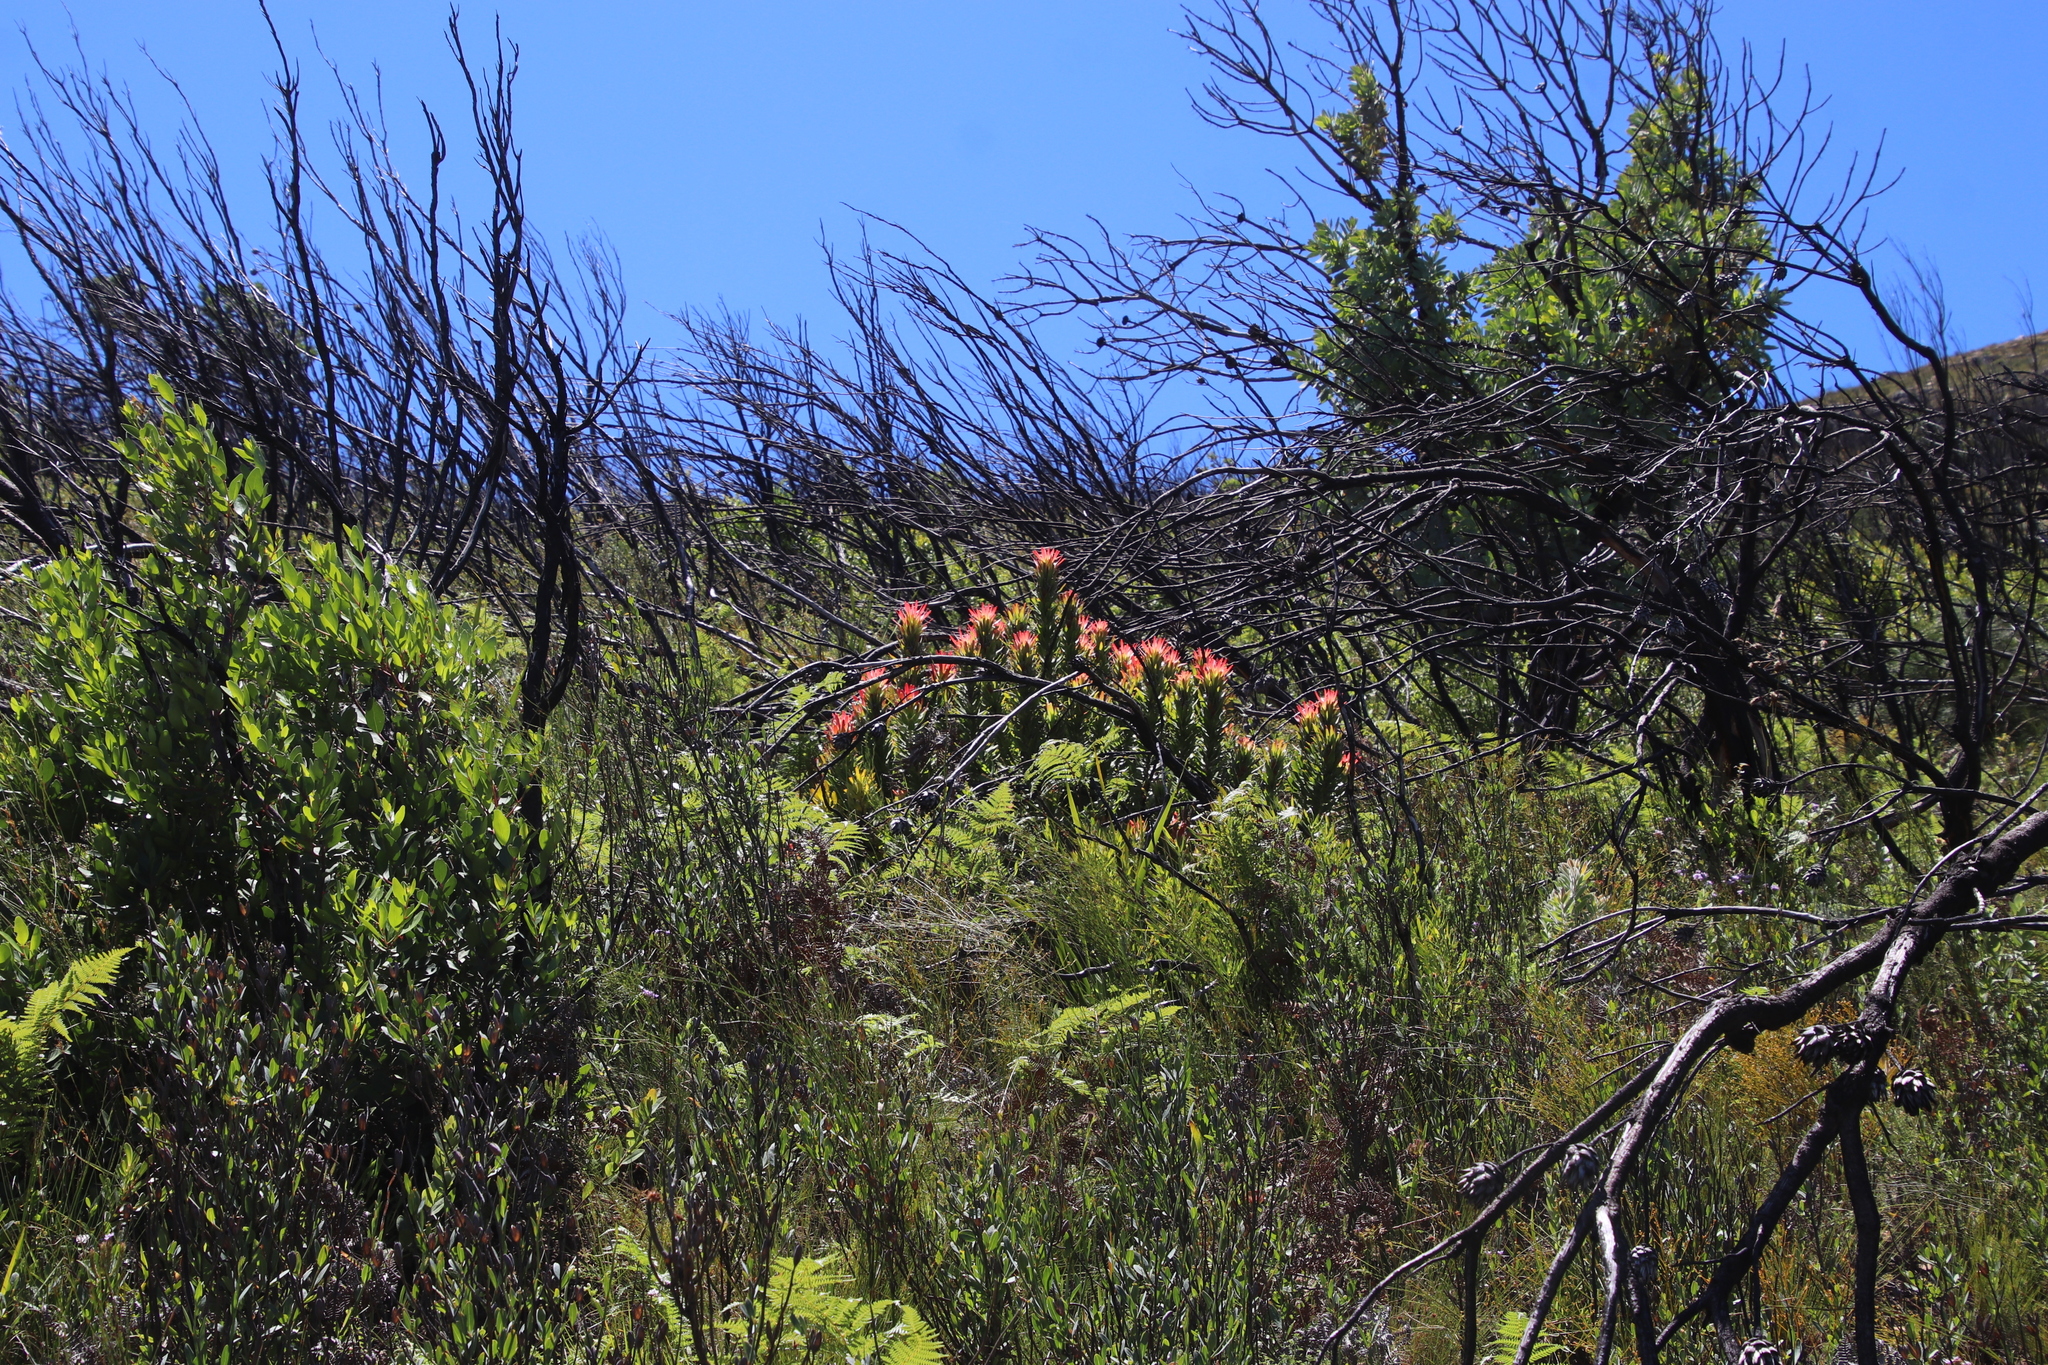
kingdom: Plantae
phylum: Tracheophyta
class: Magnoliopsida
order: Proteales
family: Proteaceae
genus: Mimetes
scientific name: Mimetes cucullatus
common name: Common pagoda
